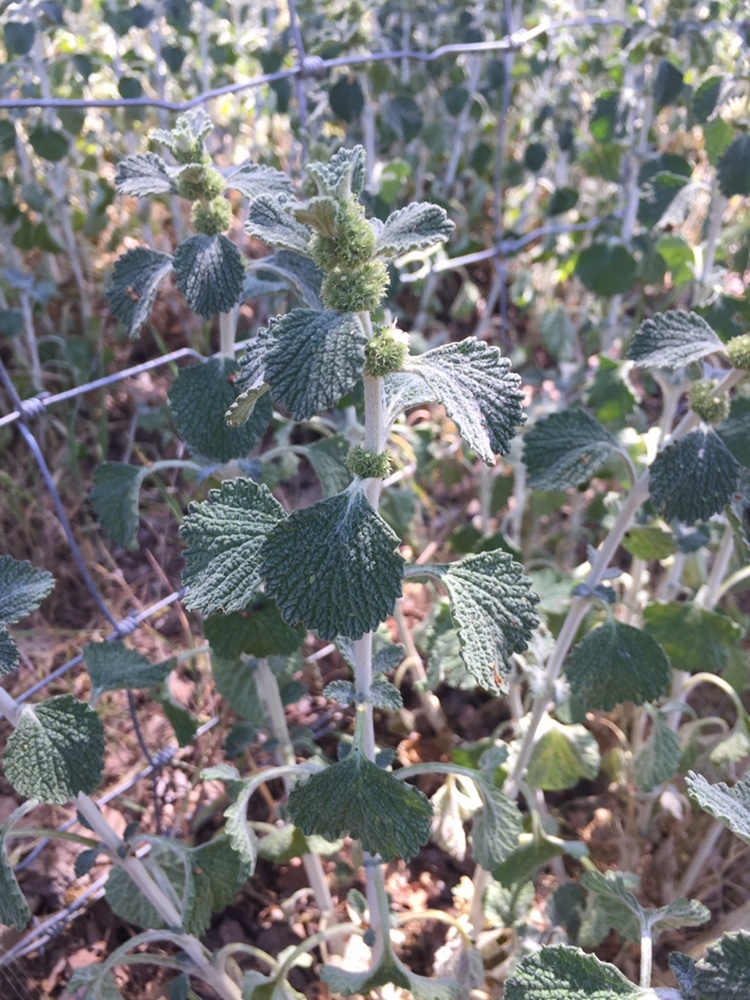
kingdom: Plantae
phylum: Tracheophyta
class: Magnoliopsida
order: Lamiales
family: Lamiaceae
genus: Marrubium
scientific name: Marrubium vulgare
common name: Horehound
